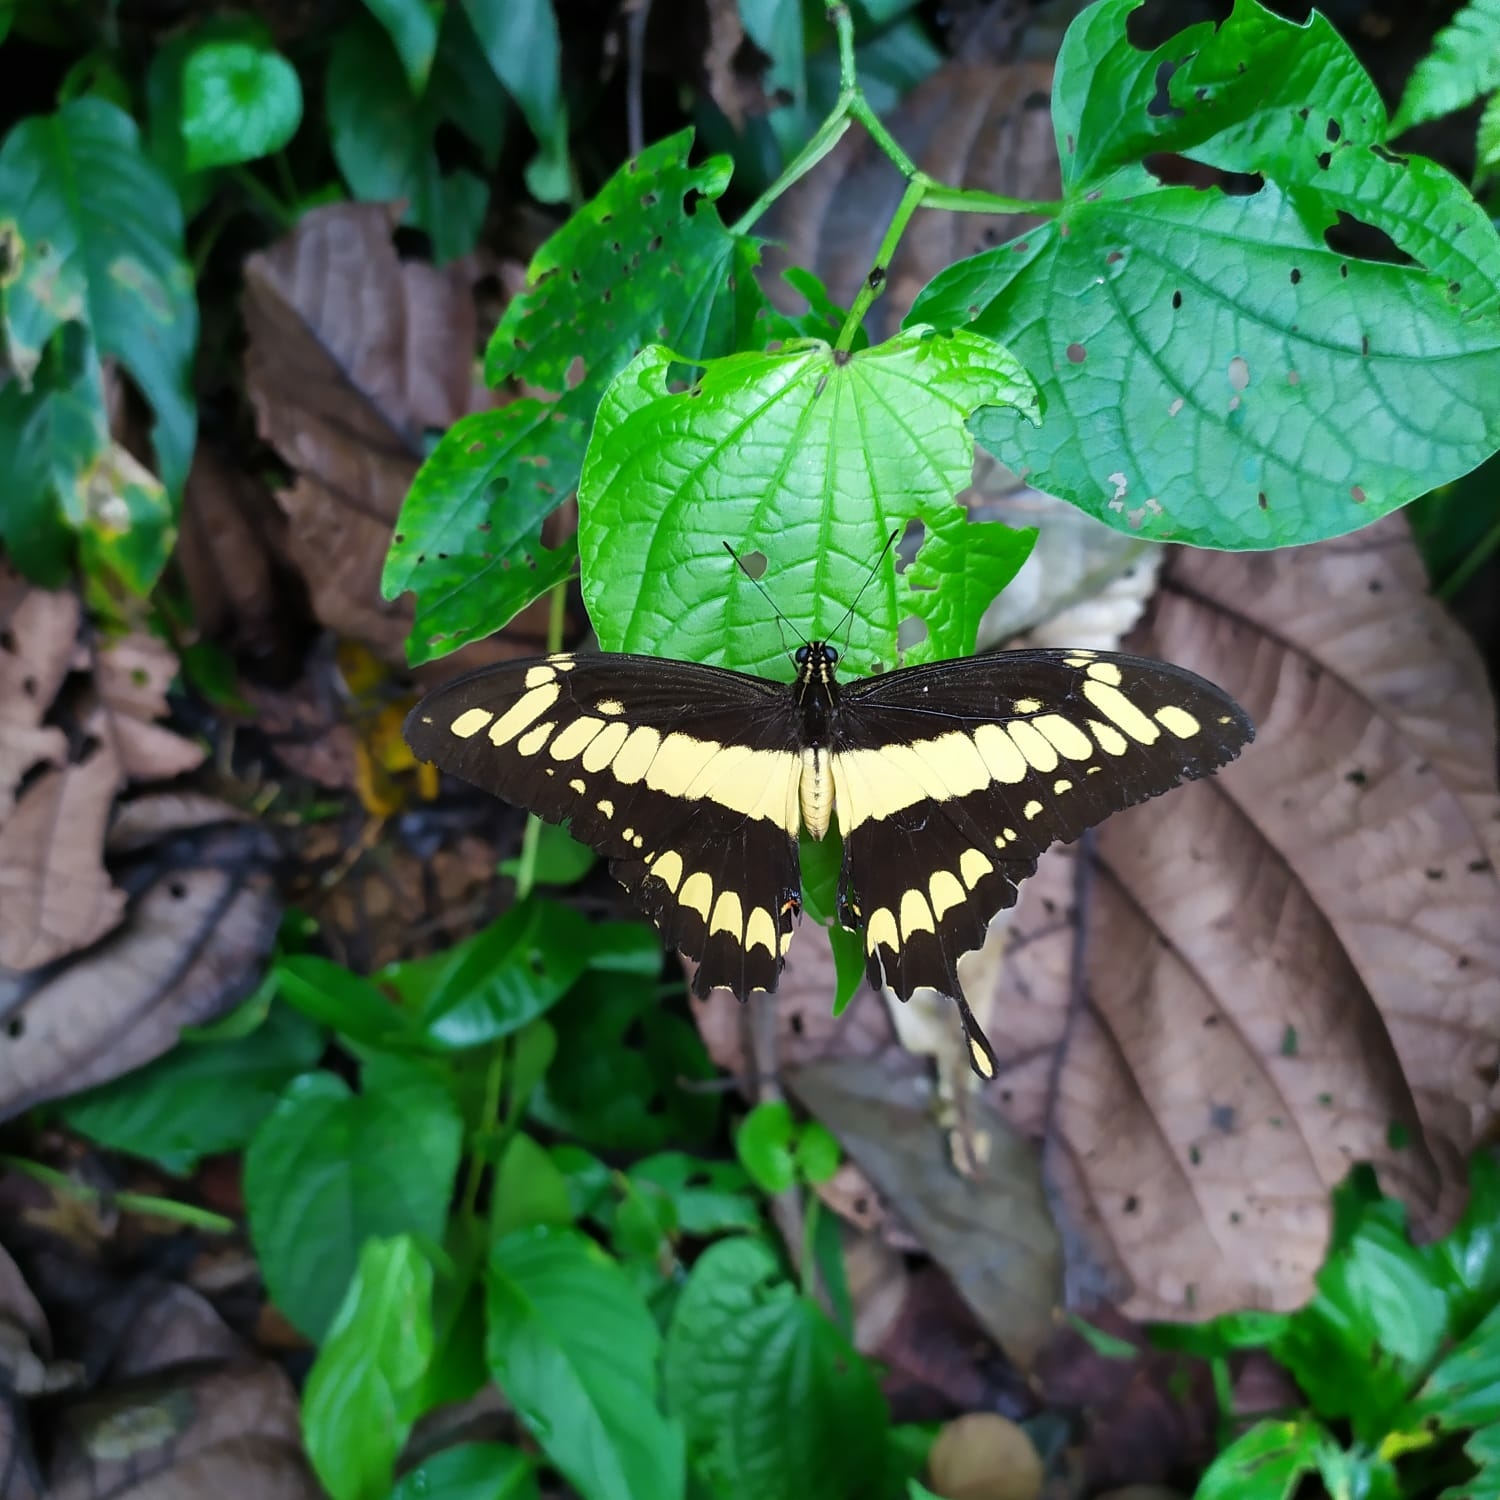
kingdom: Animalia
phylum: Arthropoda
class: Insecta
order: Lepidoptera
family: Papilionidae
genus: Papilio
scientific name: Papilio thoas
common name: King swallowtail
